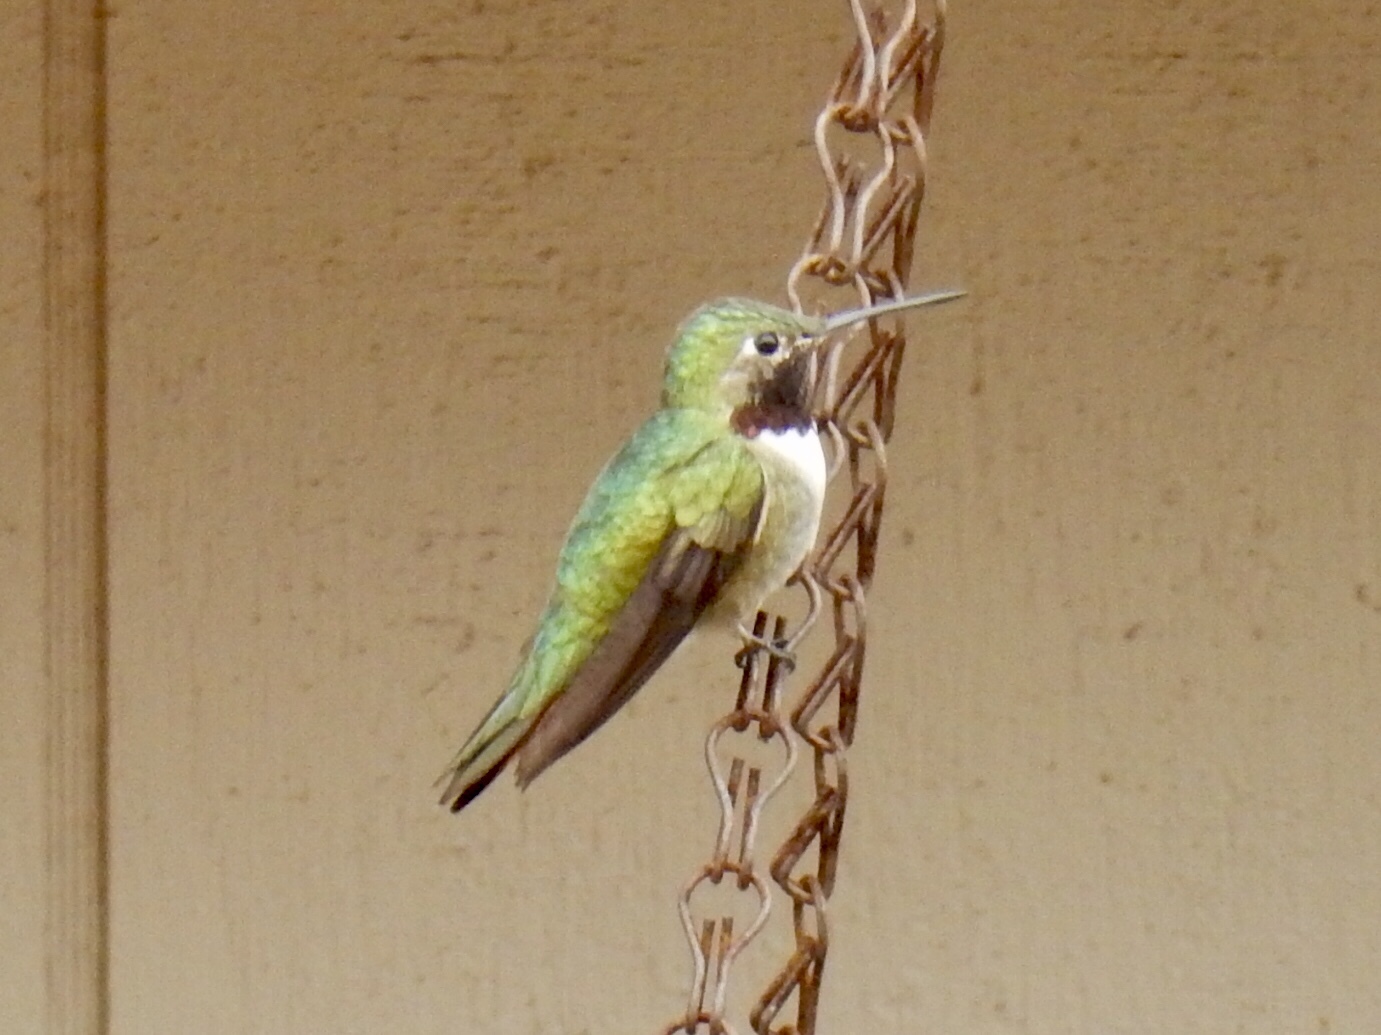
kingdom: Animalia
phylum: Chordata
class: Aves
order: Apodiformes
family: Trochilidae
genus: Selasphorus
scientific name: Selasphorus platycercus
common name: Broad-tailed hummingbird
